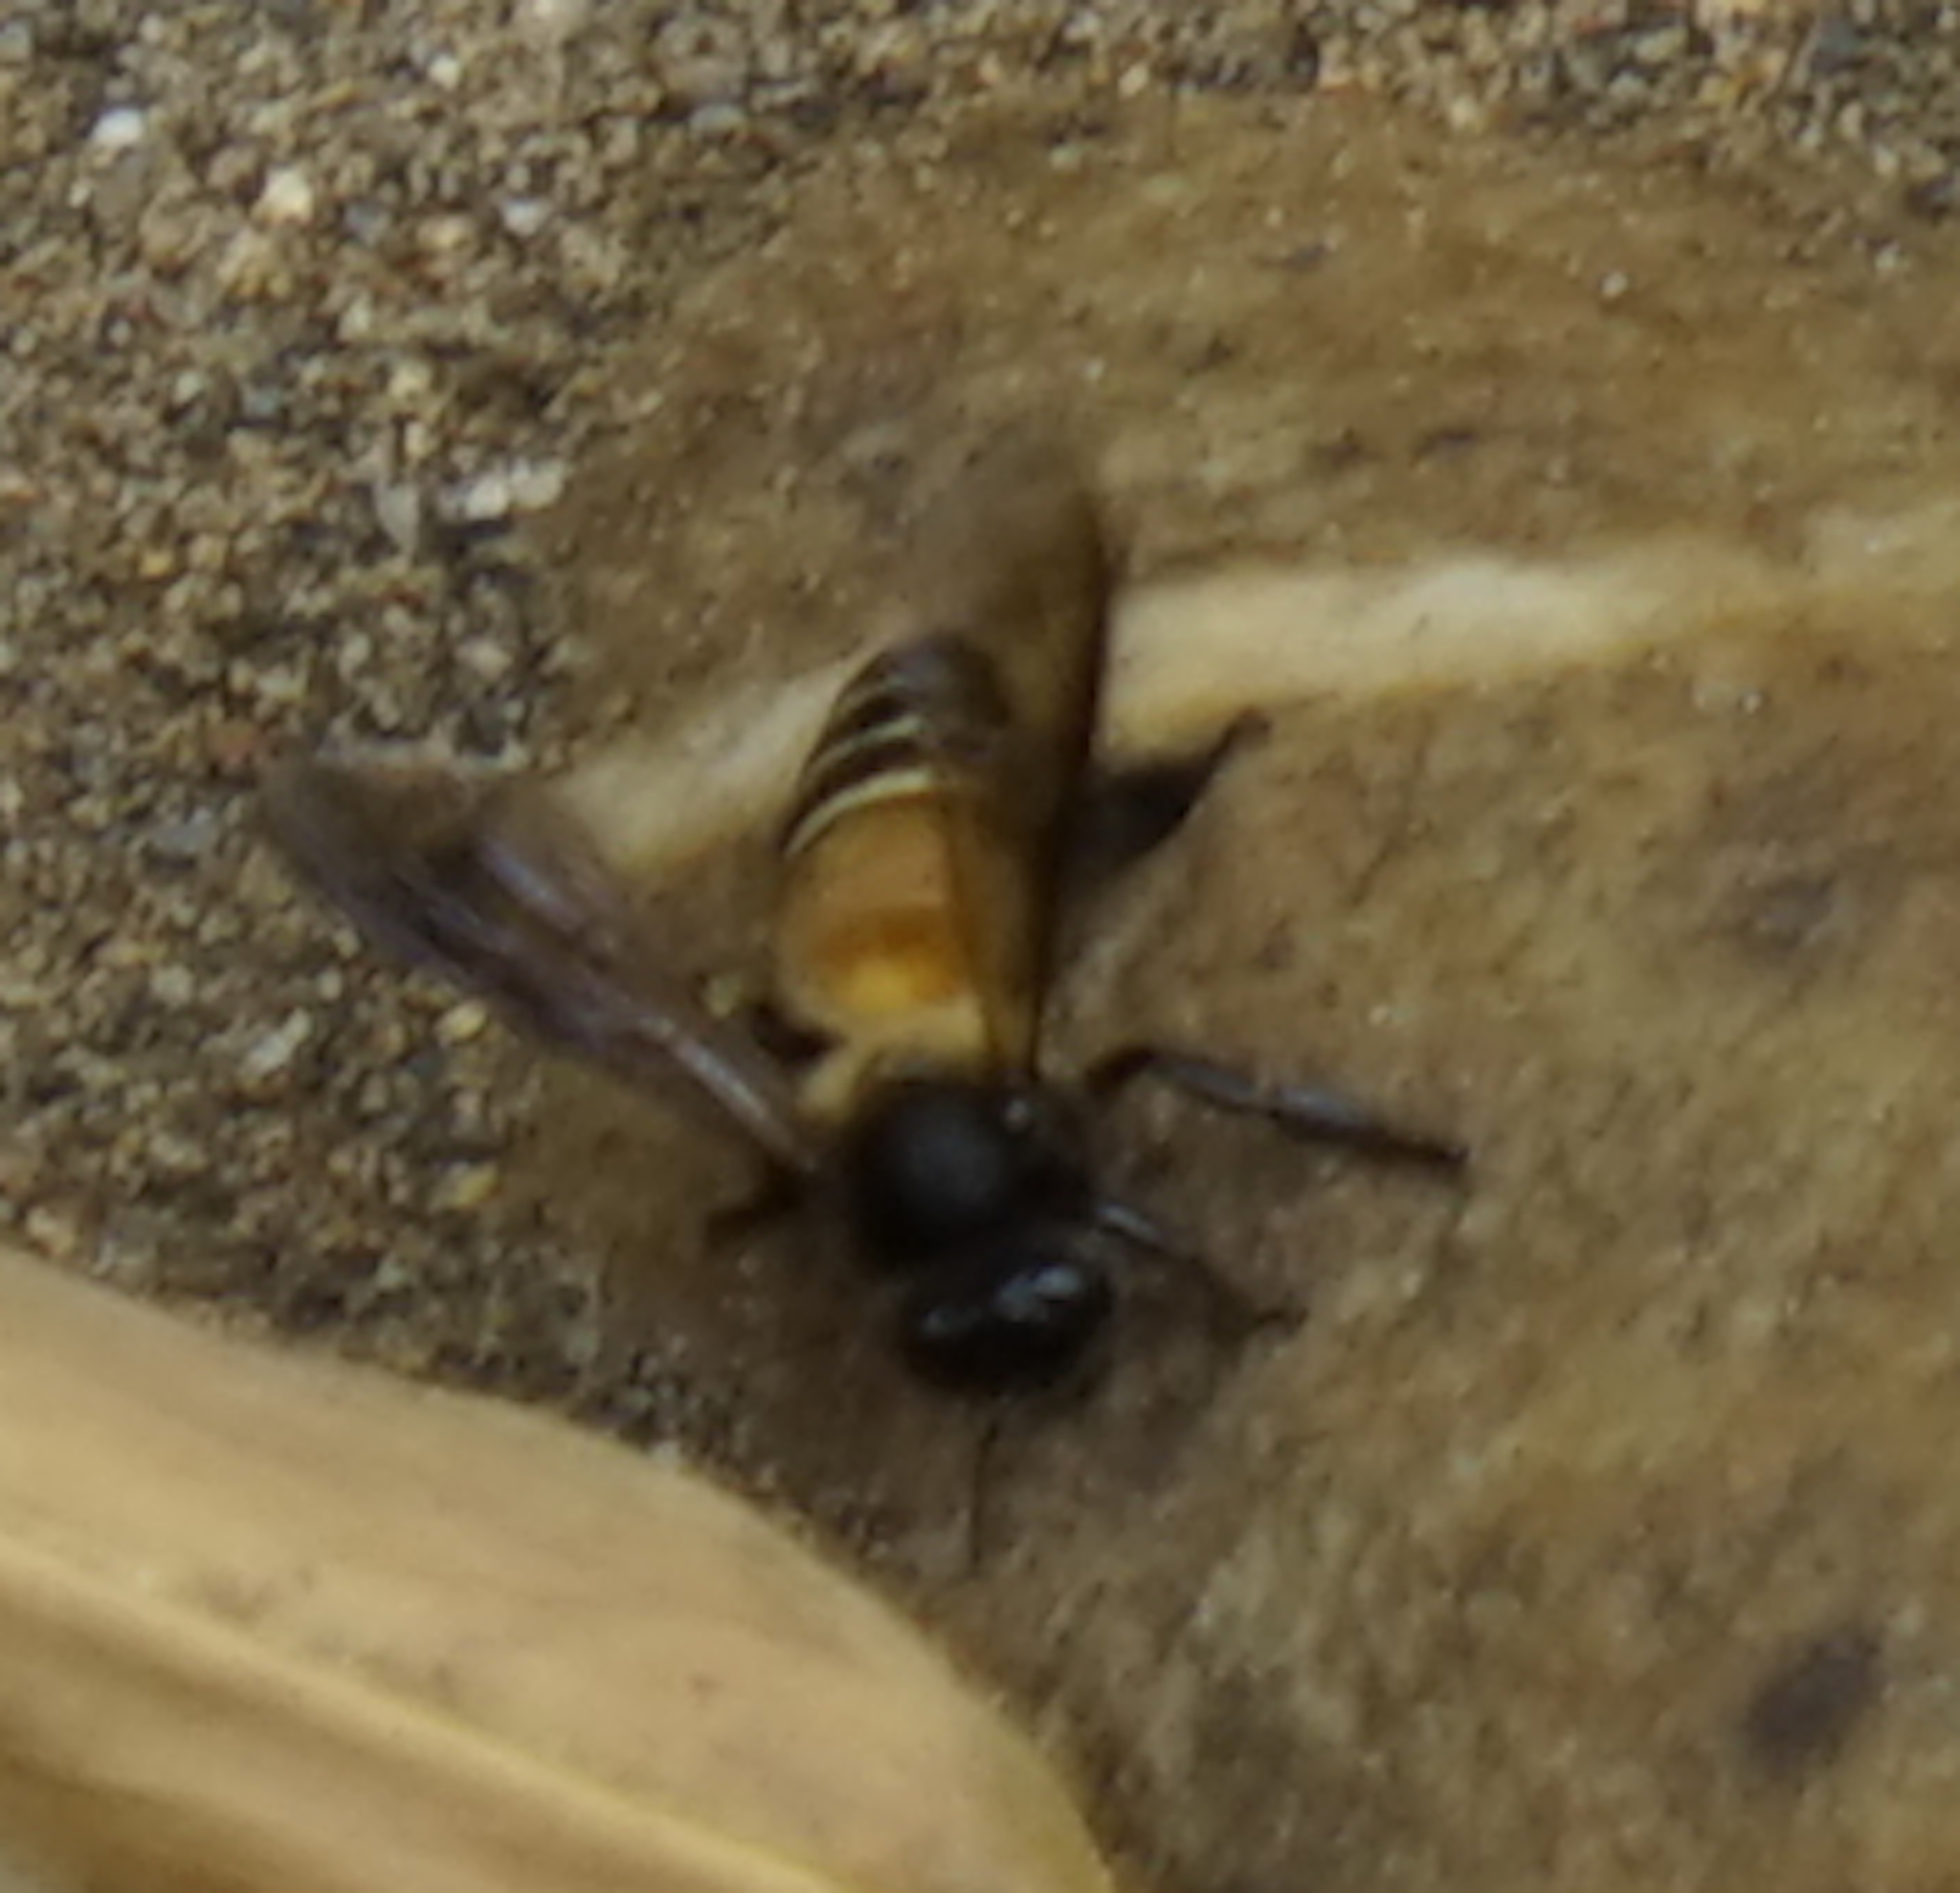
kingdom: Animalia
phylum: Arthropoda
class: Insecta
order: Hymenoptera
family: Apidae
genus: Apis
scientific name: Apis dorsata
